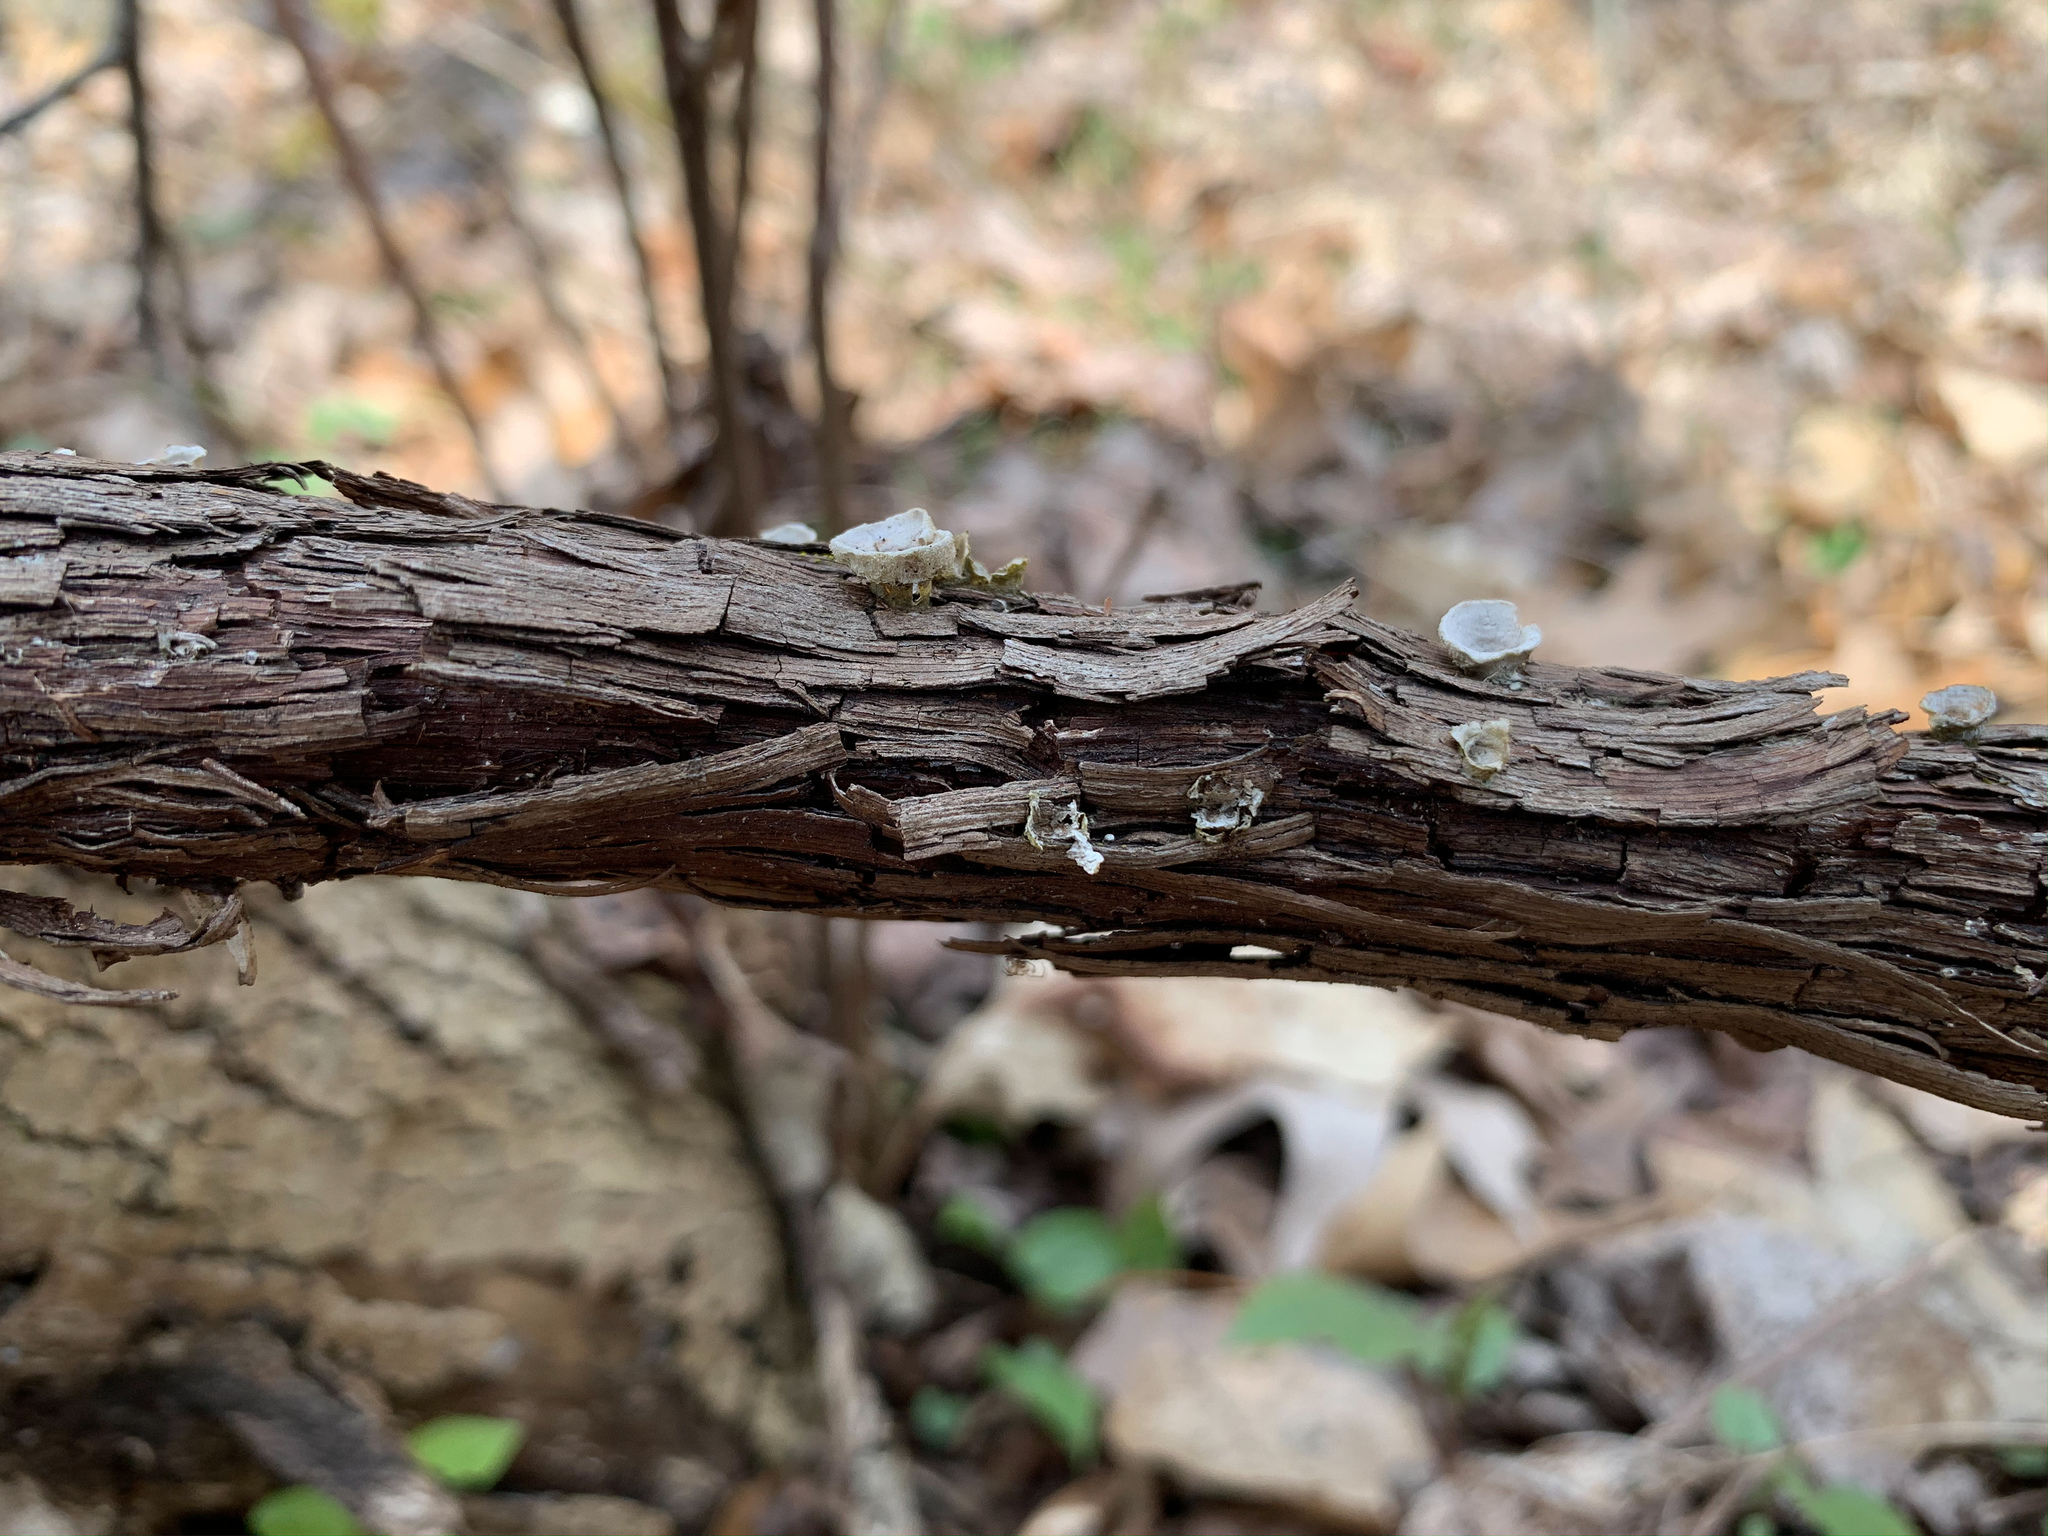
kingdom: Fungi
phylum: Basidiomycota
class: Agaricomycetes
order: Polyporales
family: Polyporaceae
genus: Poronidulus
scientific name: Poronidulus conchifer
